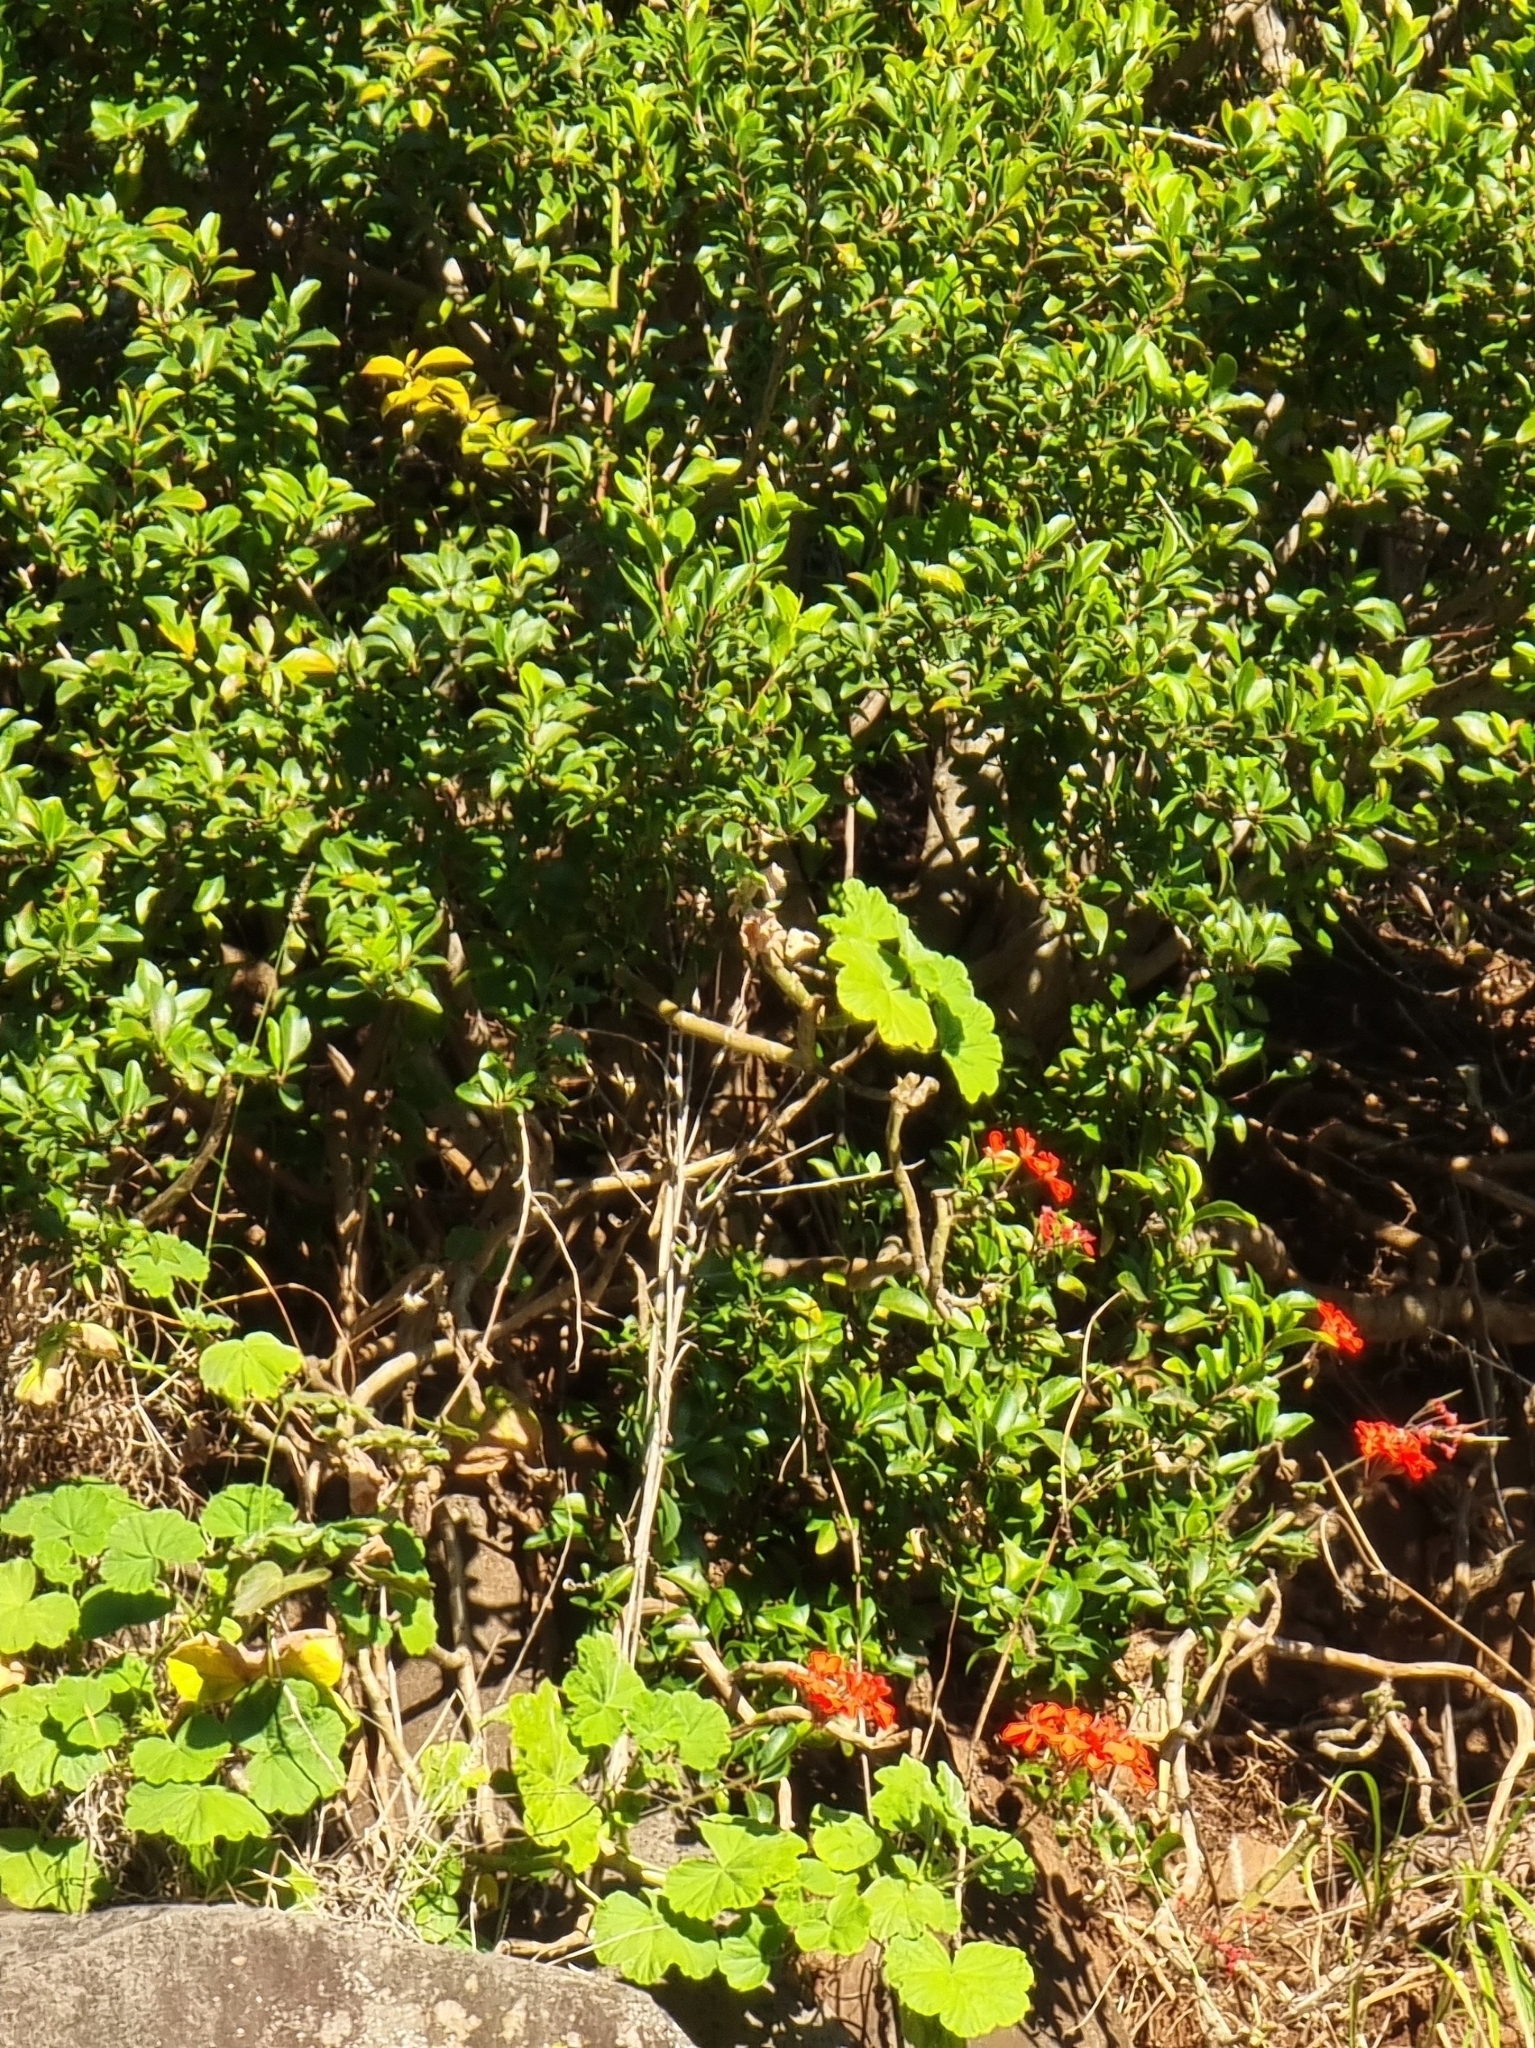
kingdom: Plantae
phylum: Tracheophyta
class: Magnoliopsida
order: Geraniales
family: Geraniaceae
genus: Pelargonium
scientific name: Pelargonium hybridum
